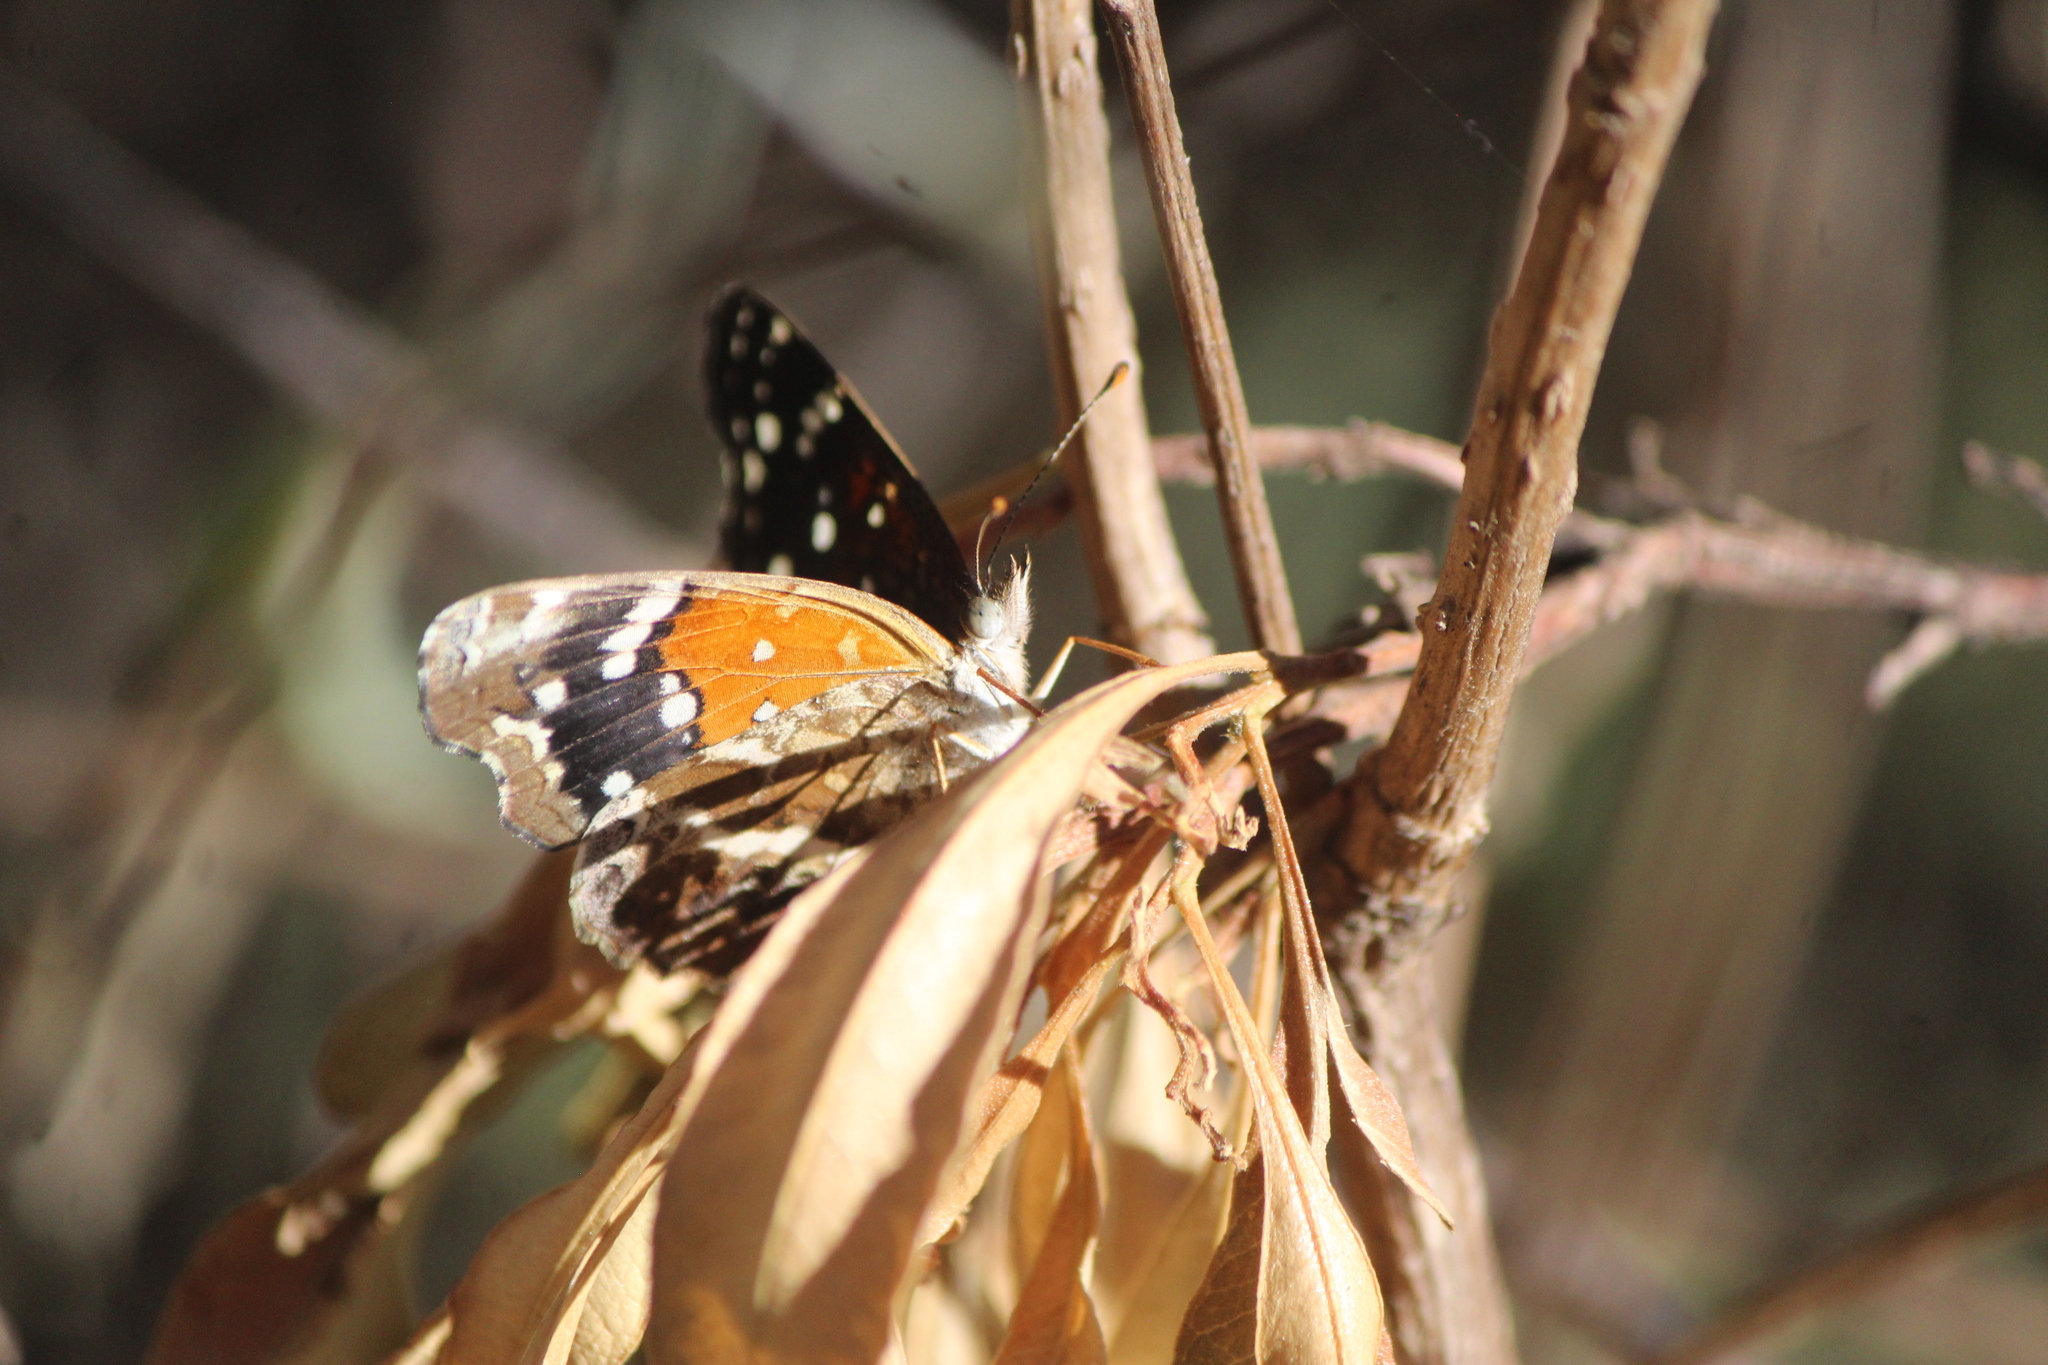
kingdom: Animalia
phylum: Arthropoda
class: Insecta
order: Lepidoptera
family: Nymphalidae
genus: Anthanassa
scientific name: Anthanassa texana
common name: Texan crescent
